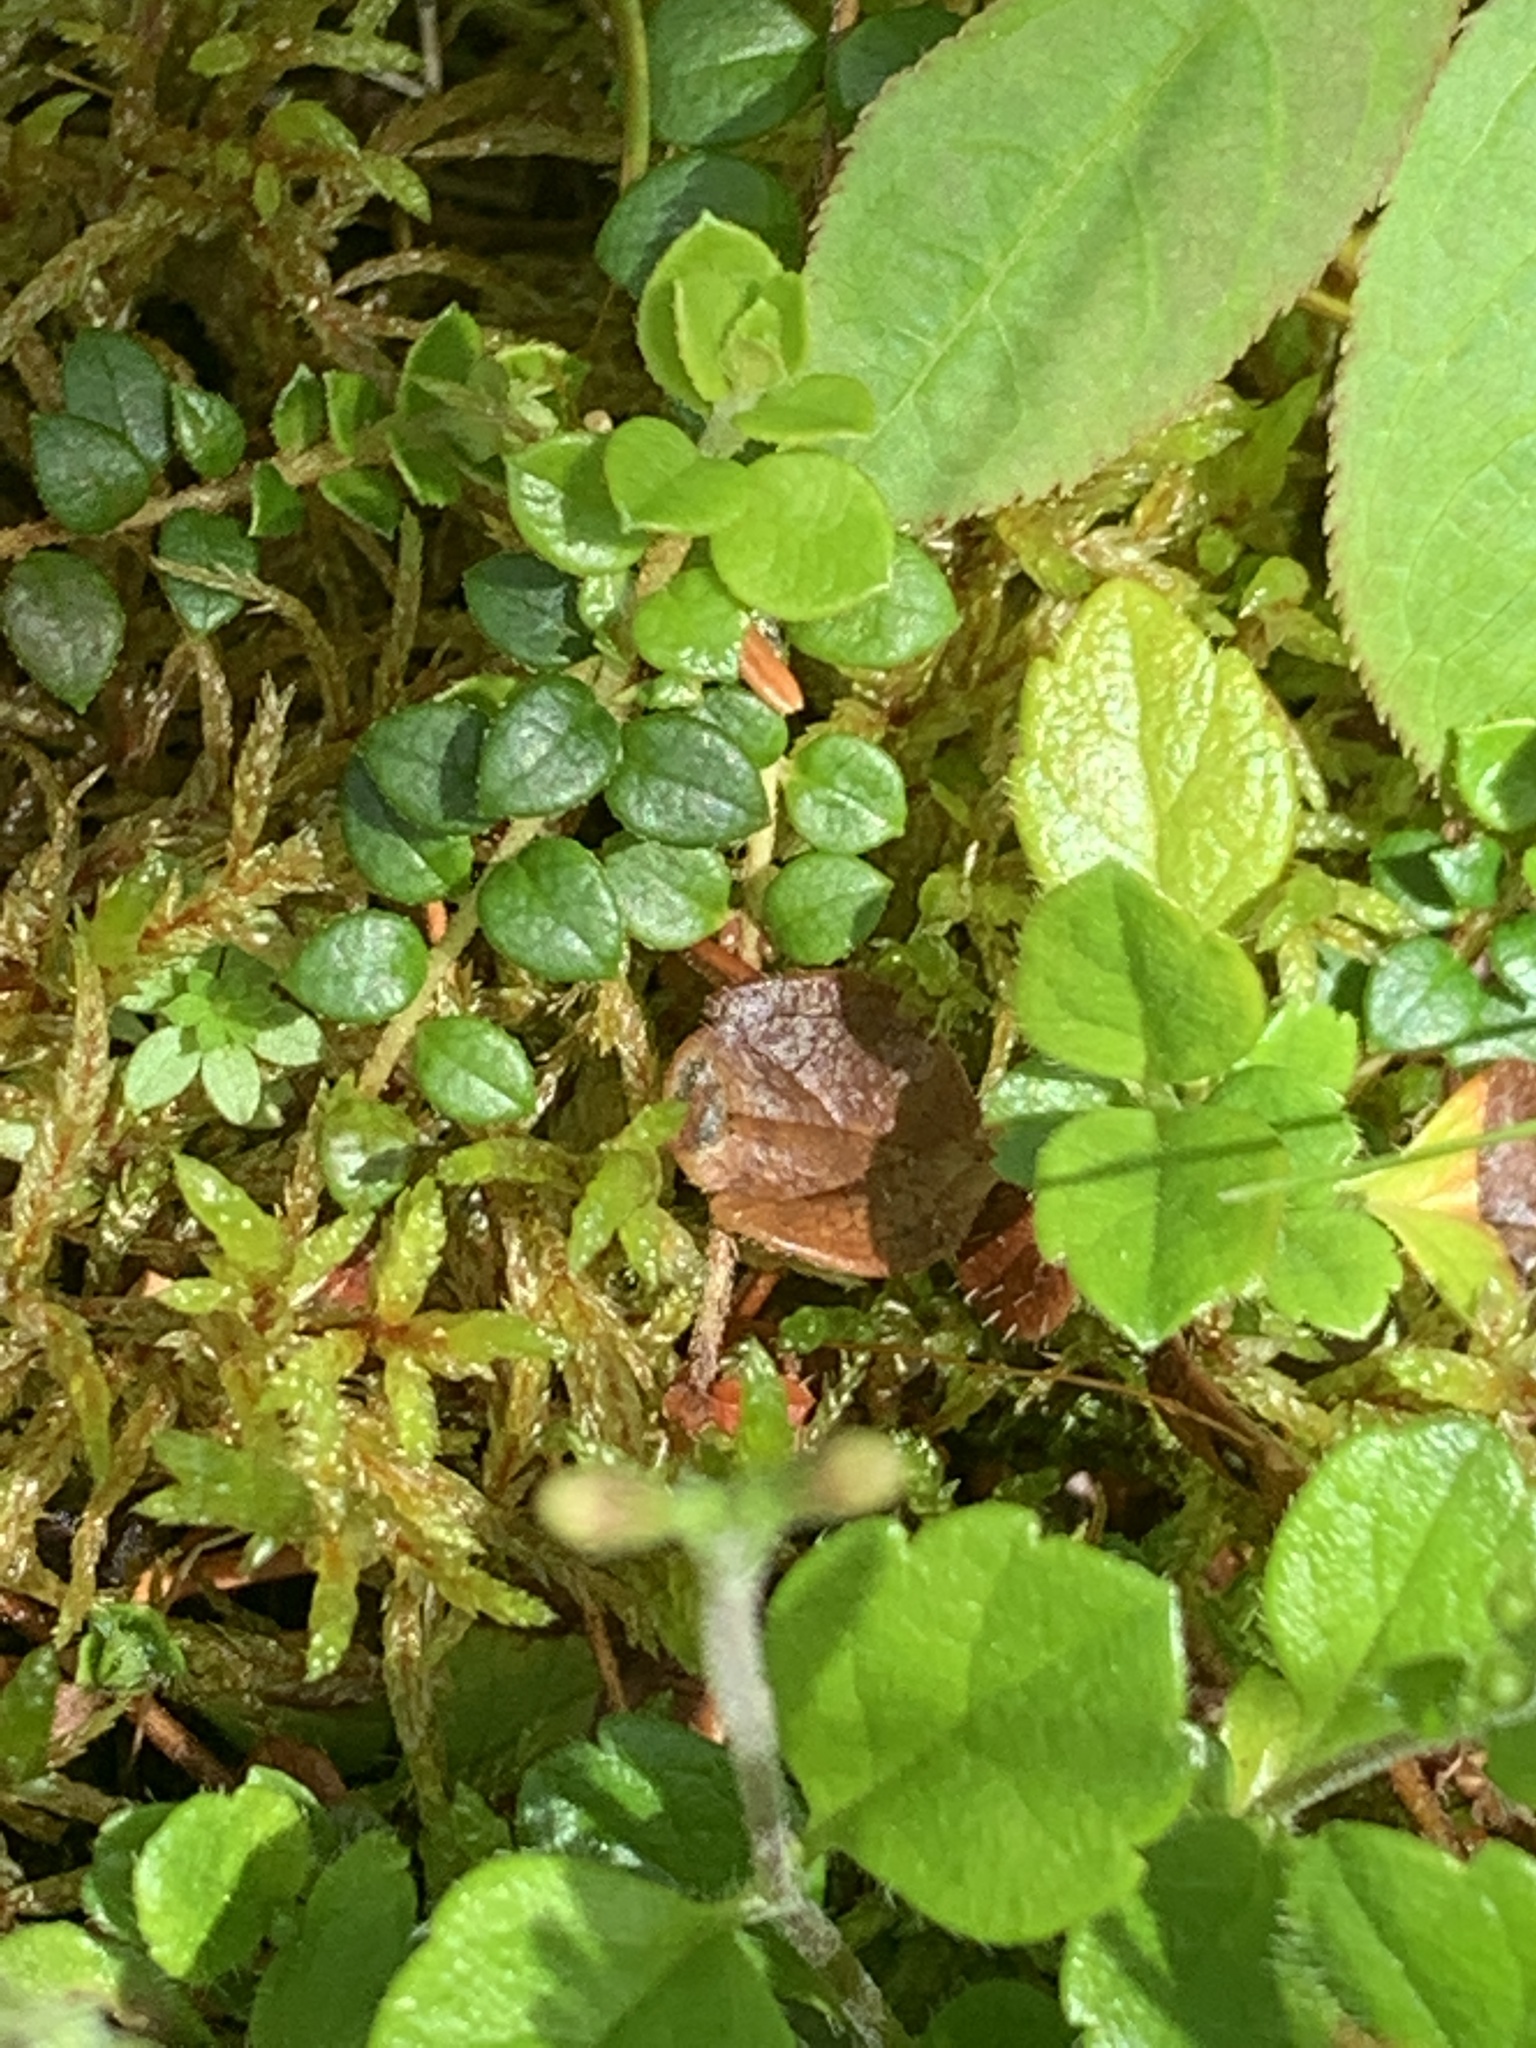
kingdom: Plantae
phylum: Tracheophyta
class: Magnoliopsida
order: Ericales
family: Ericaceae
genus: Gaultheria
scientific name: Gaultheria hispidula
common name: Cancer wintergreen
